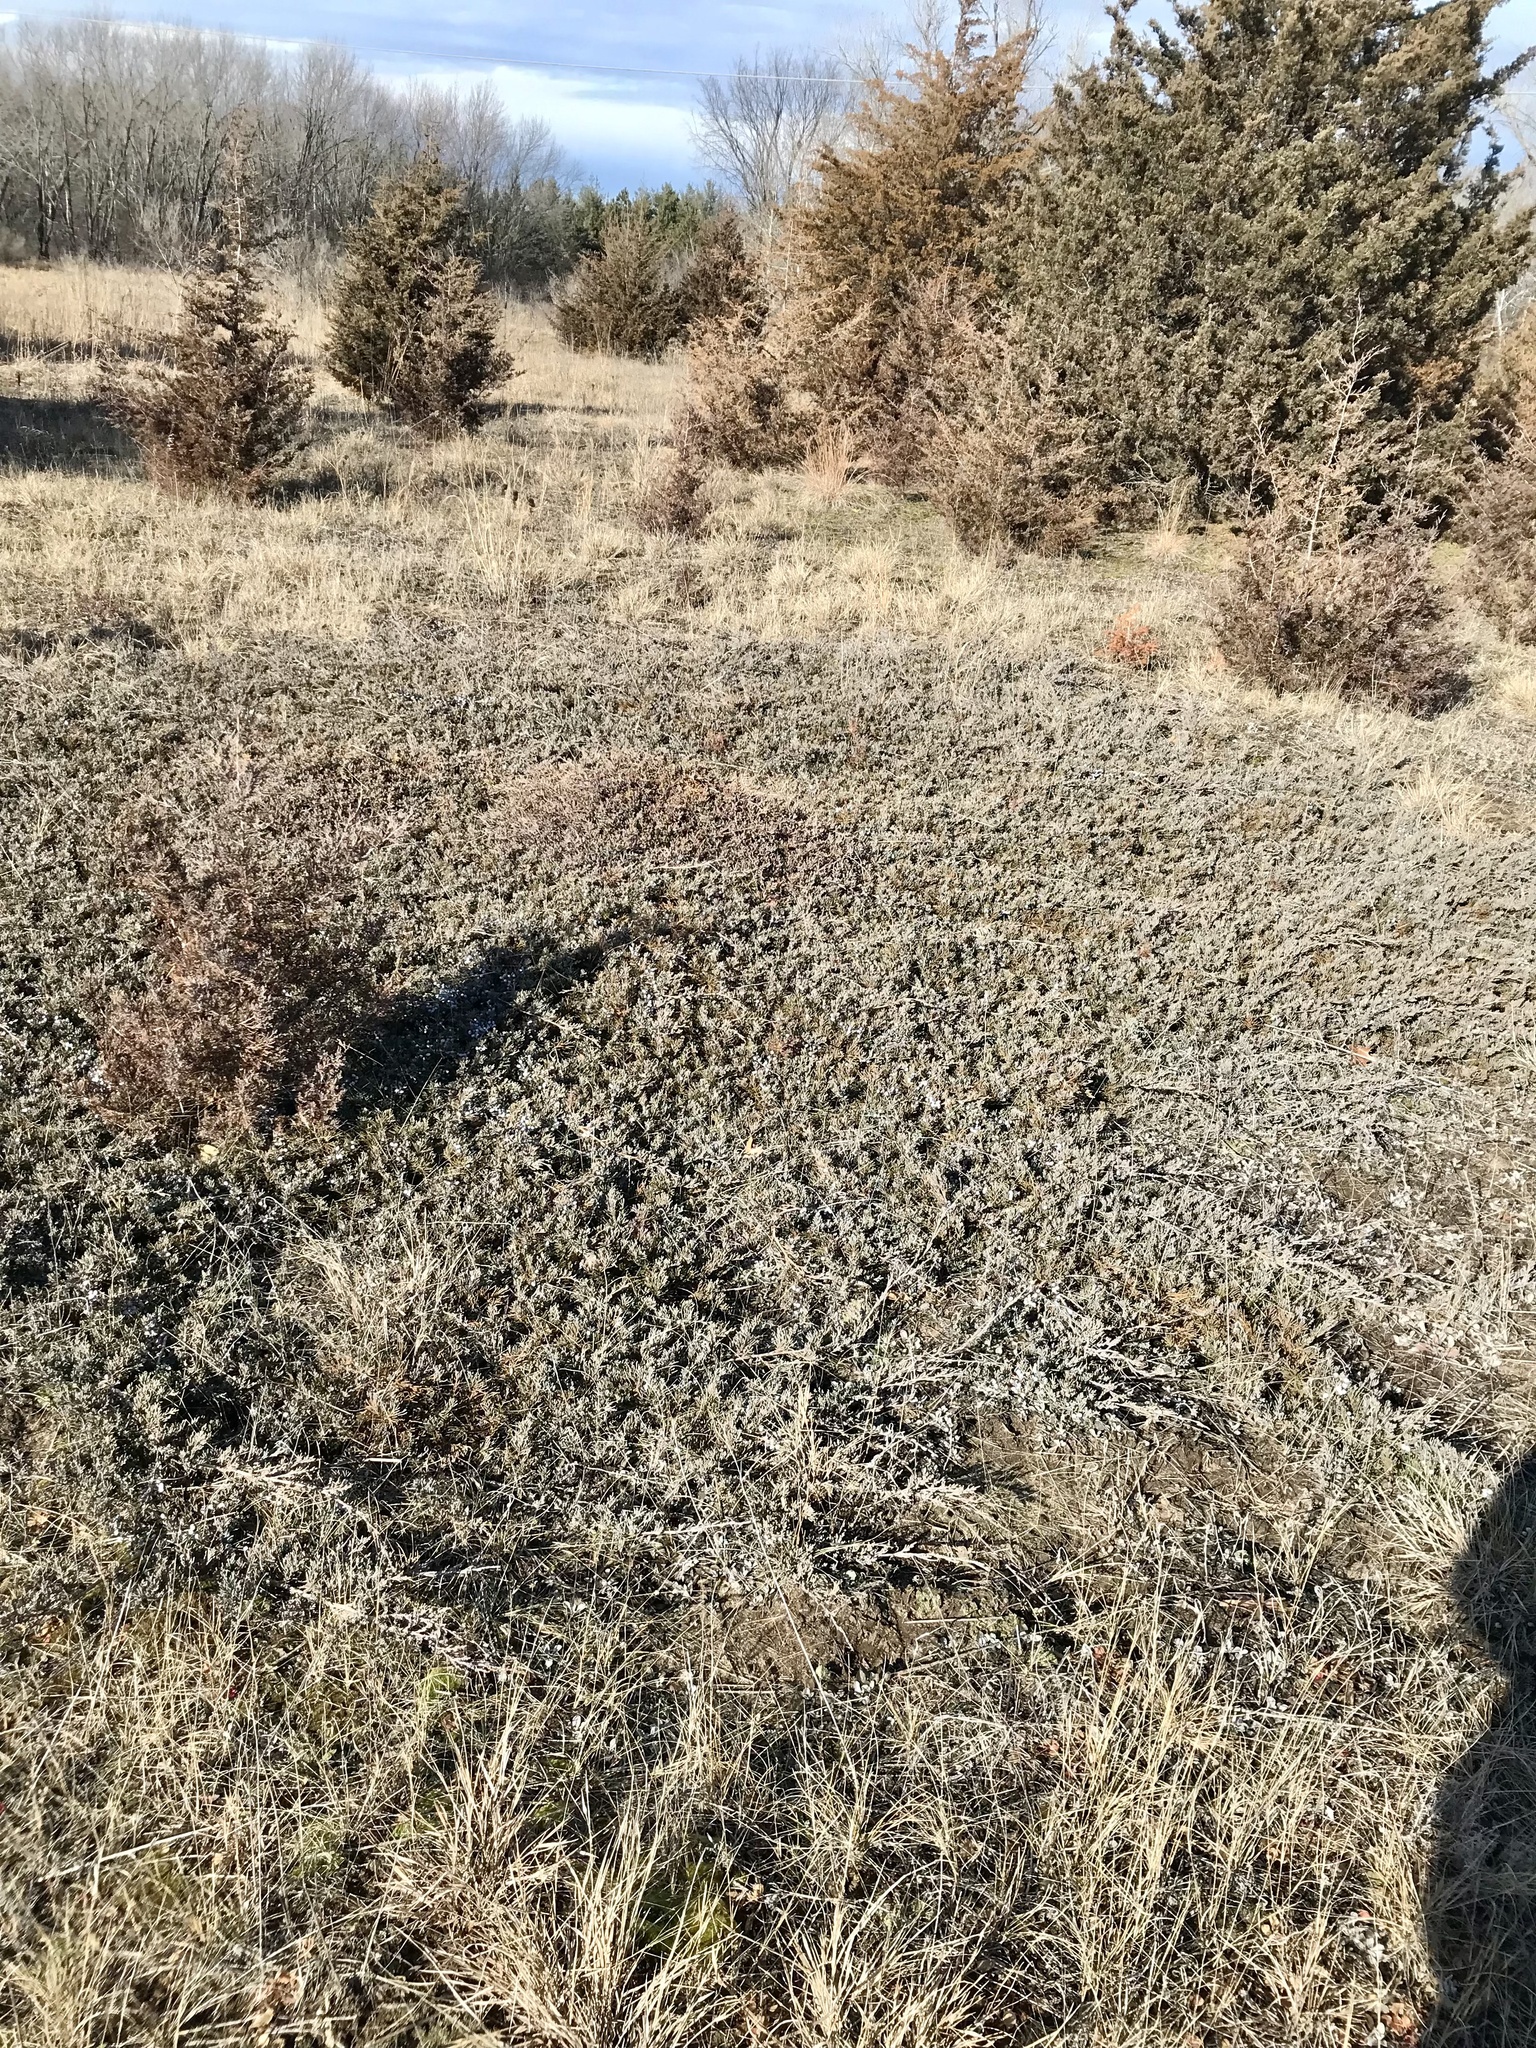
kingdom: Plantae
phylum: Tracheophyta
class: Pinopsida
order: Pinales
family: Cupressaceae
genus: Juniperus
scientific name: Juniperus horizontalis
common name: Creeping juniper
